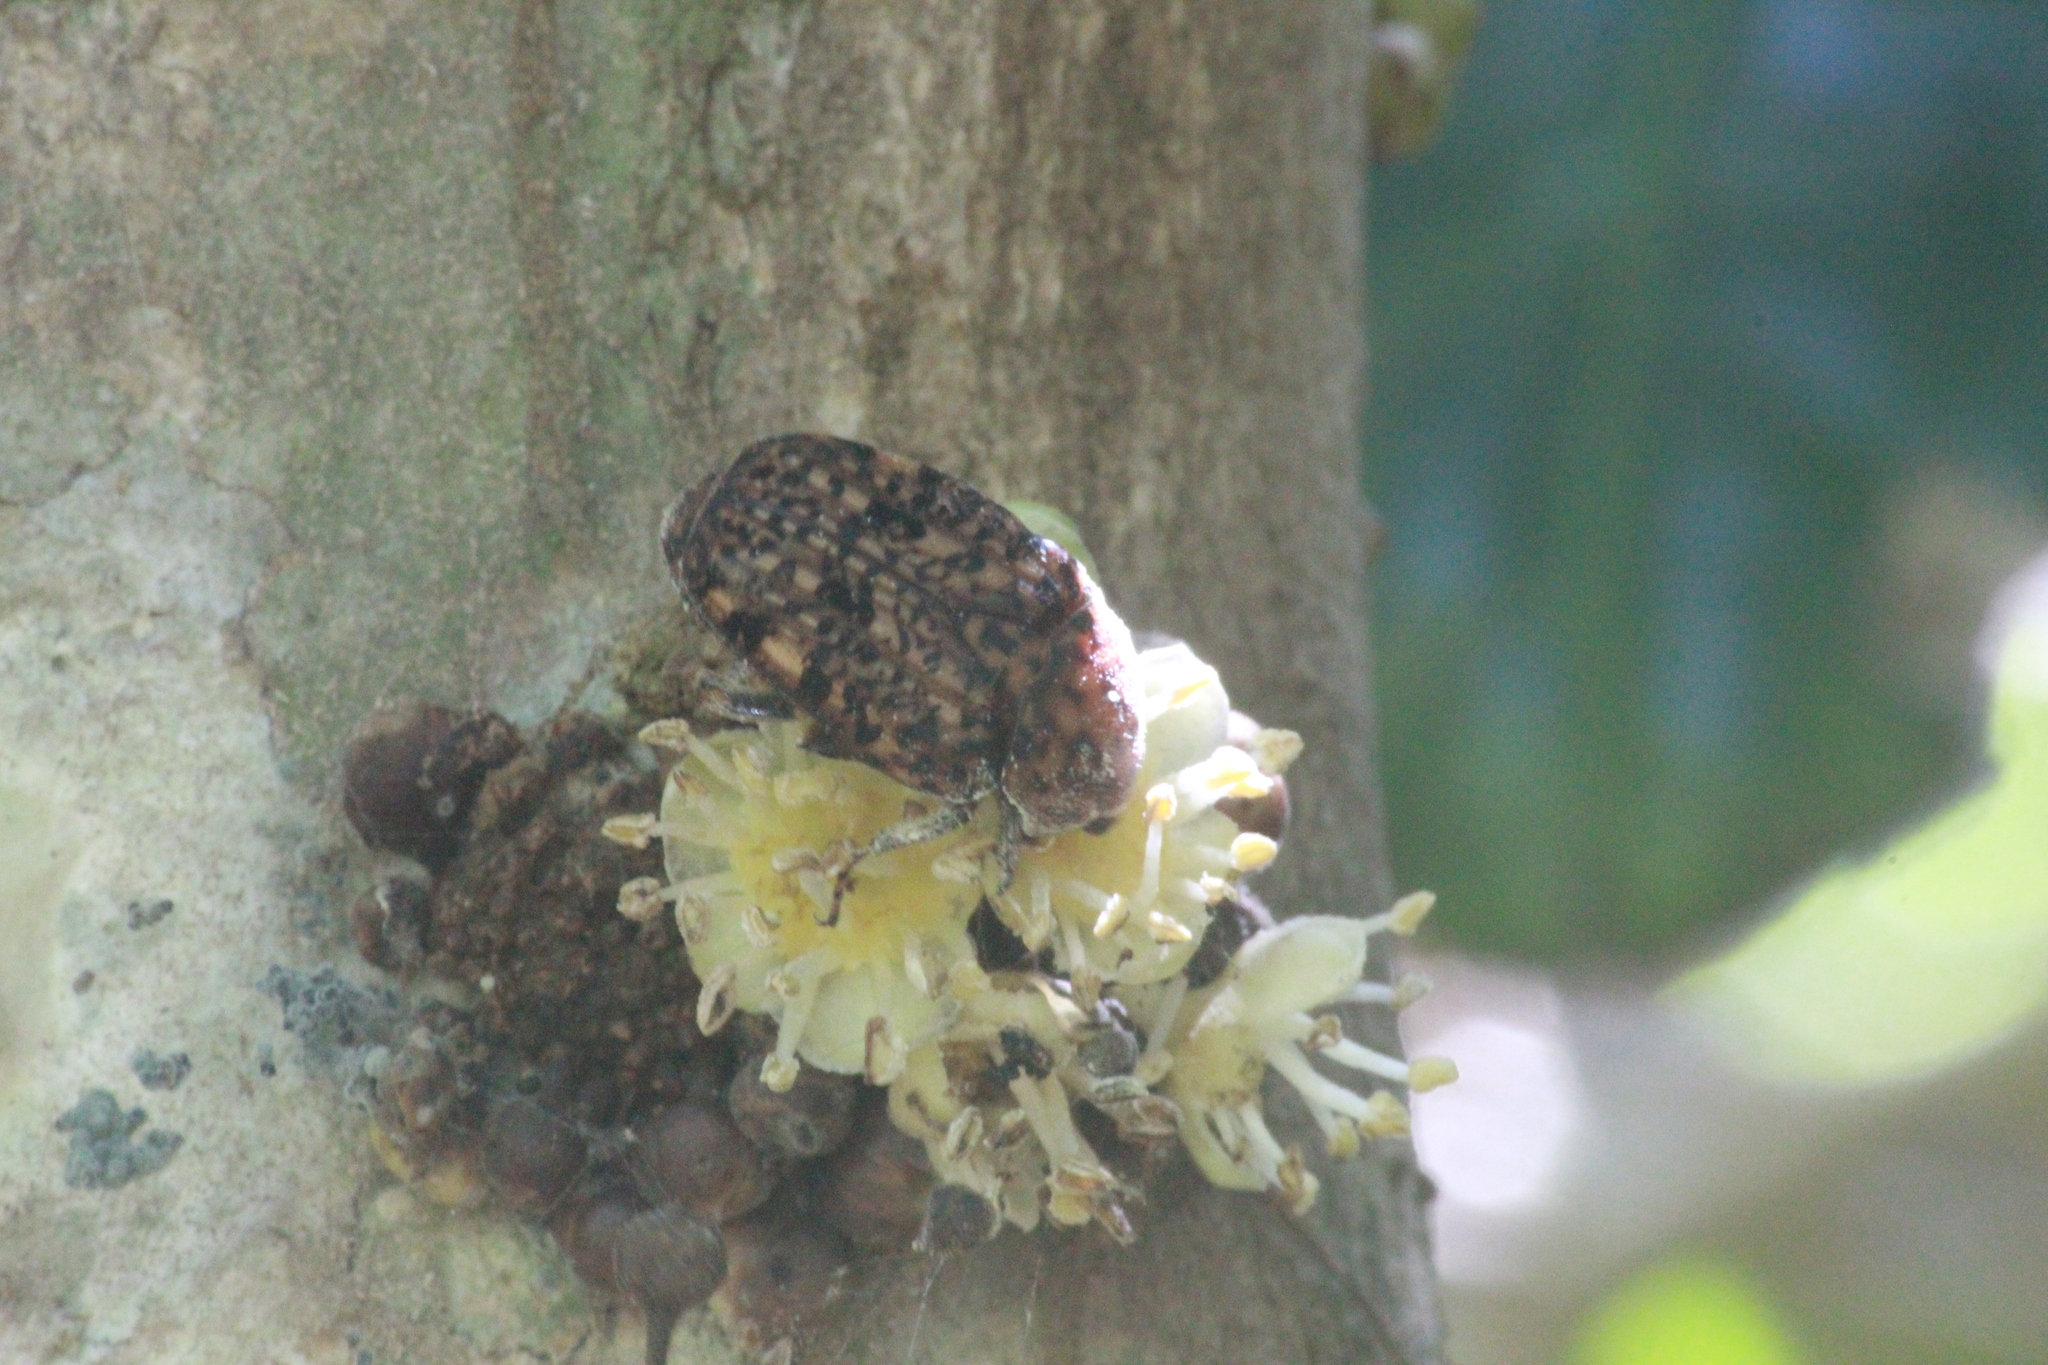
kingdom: Animalia
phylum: Arthropoda
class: Insecta
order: Coleoptera
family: Scarabaeidae
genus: Porphyronota
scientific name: Porphyronota maculatissima
